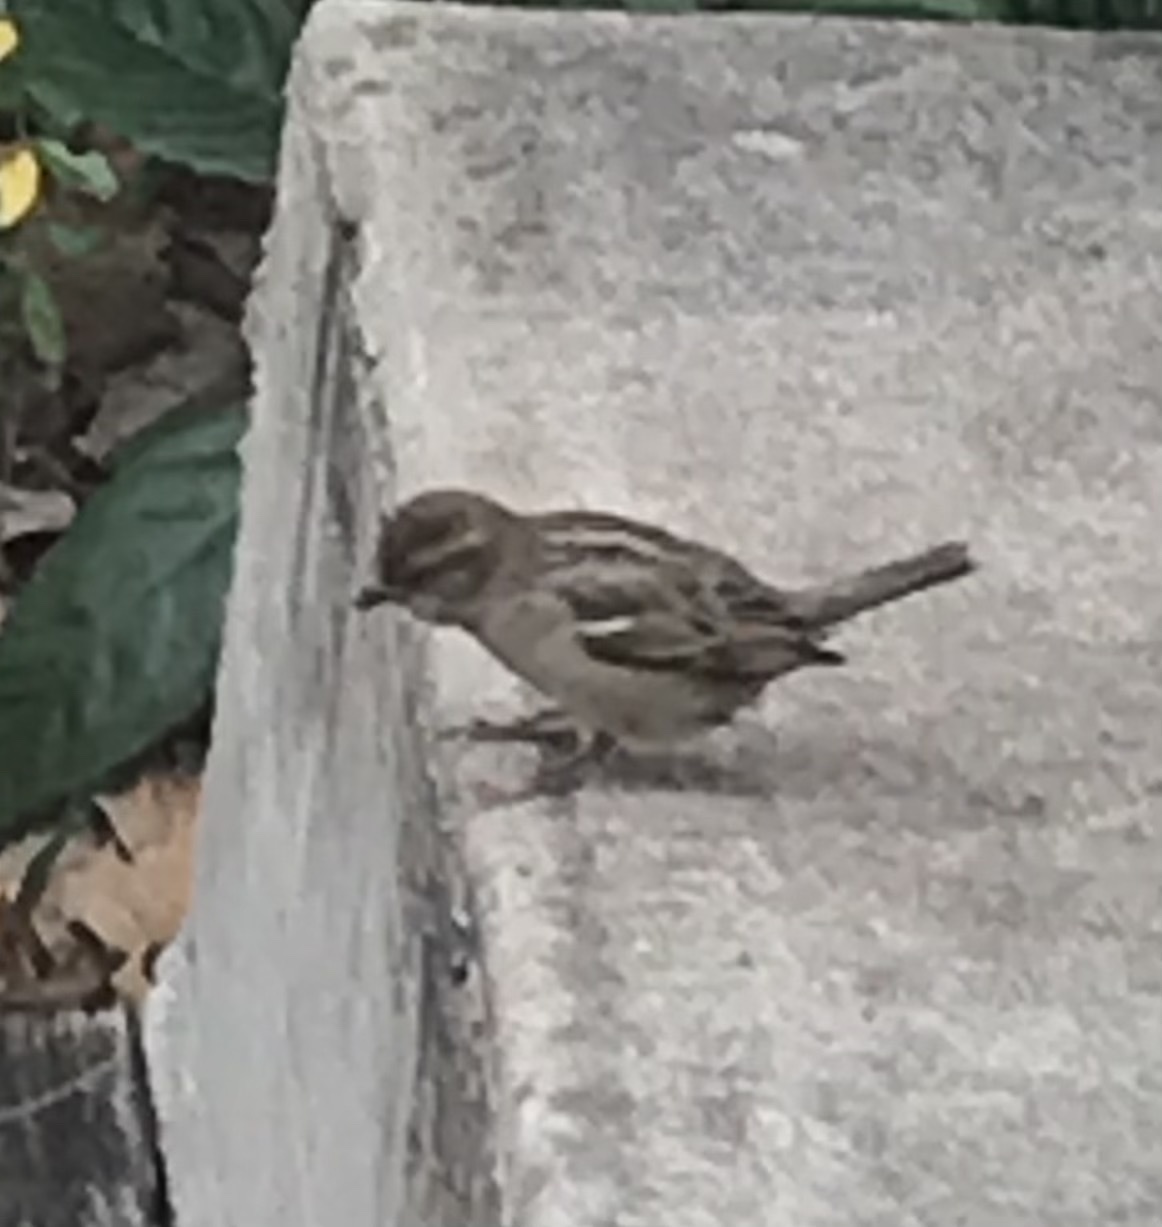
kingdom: Animalia
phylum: Chordata
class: Aves
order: Passeriformes
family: Passeridae
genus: Passer
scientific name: Passer domesticus
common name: House sparrow
